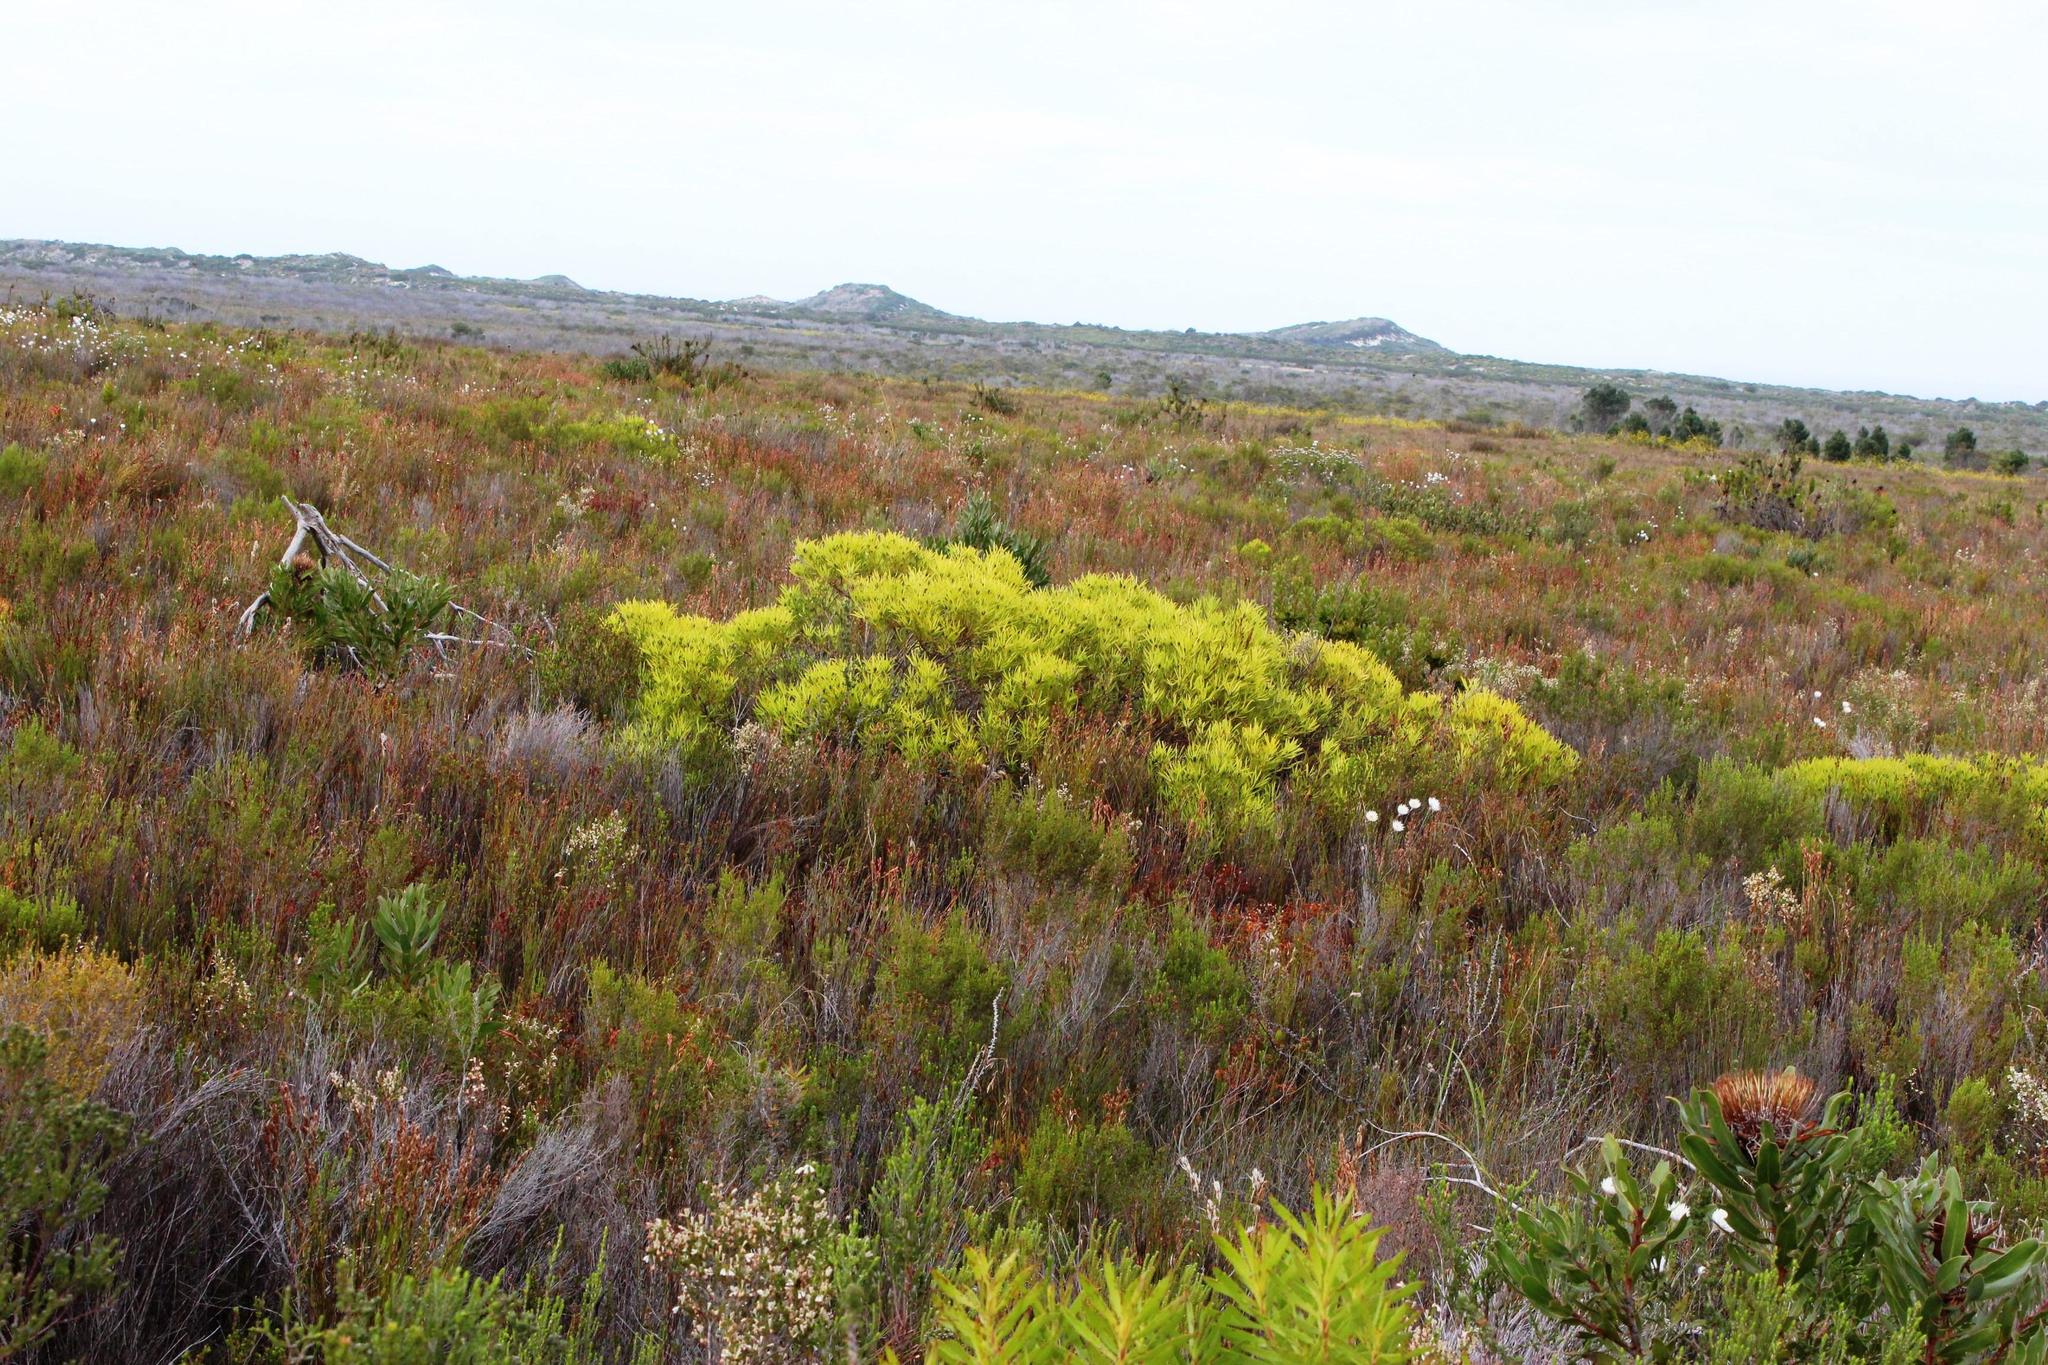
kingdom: Plantae
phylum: Tracheophyta
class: Magnoliopsida
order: Proteales
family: Proteaceae
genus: Leucadendron
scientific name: Leucadendron salignum
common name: Common sunshine conebush
